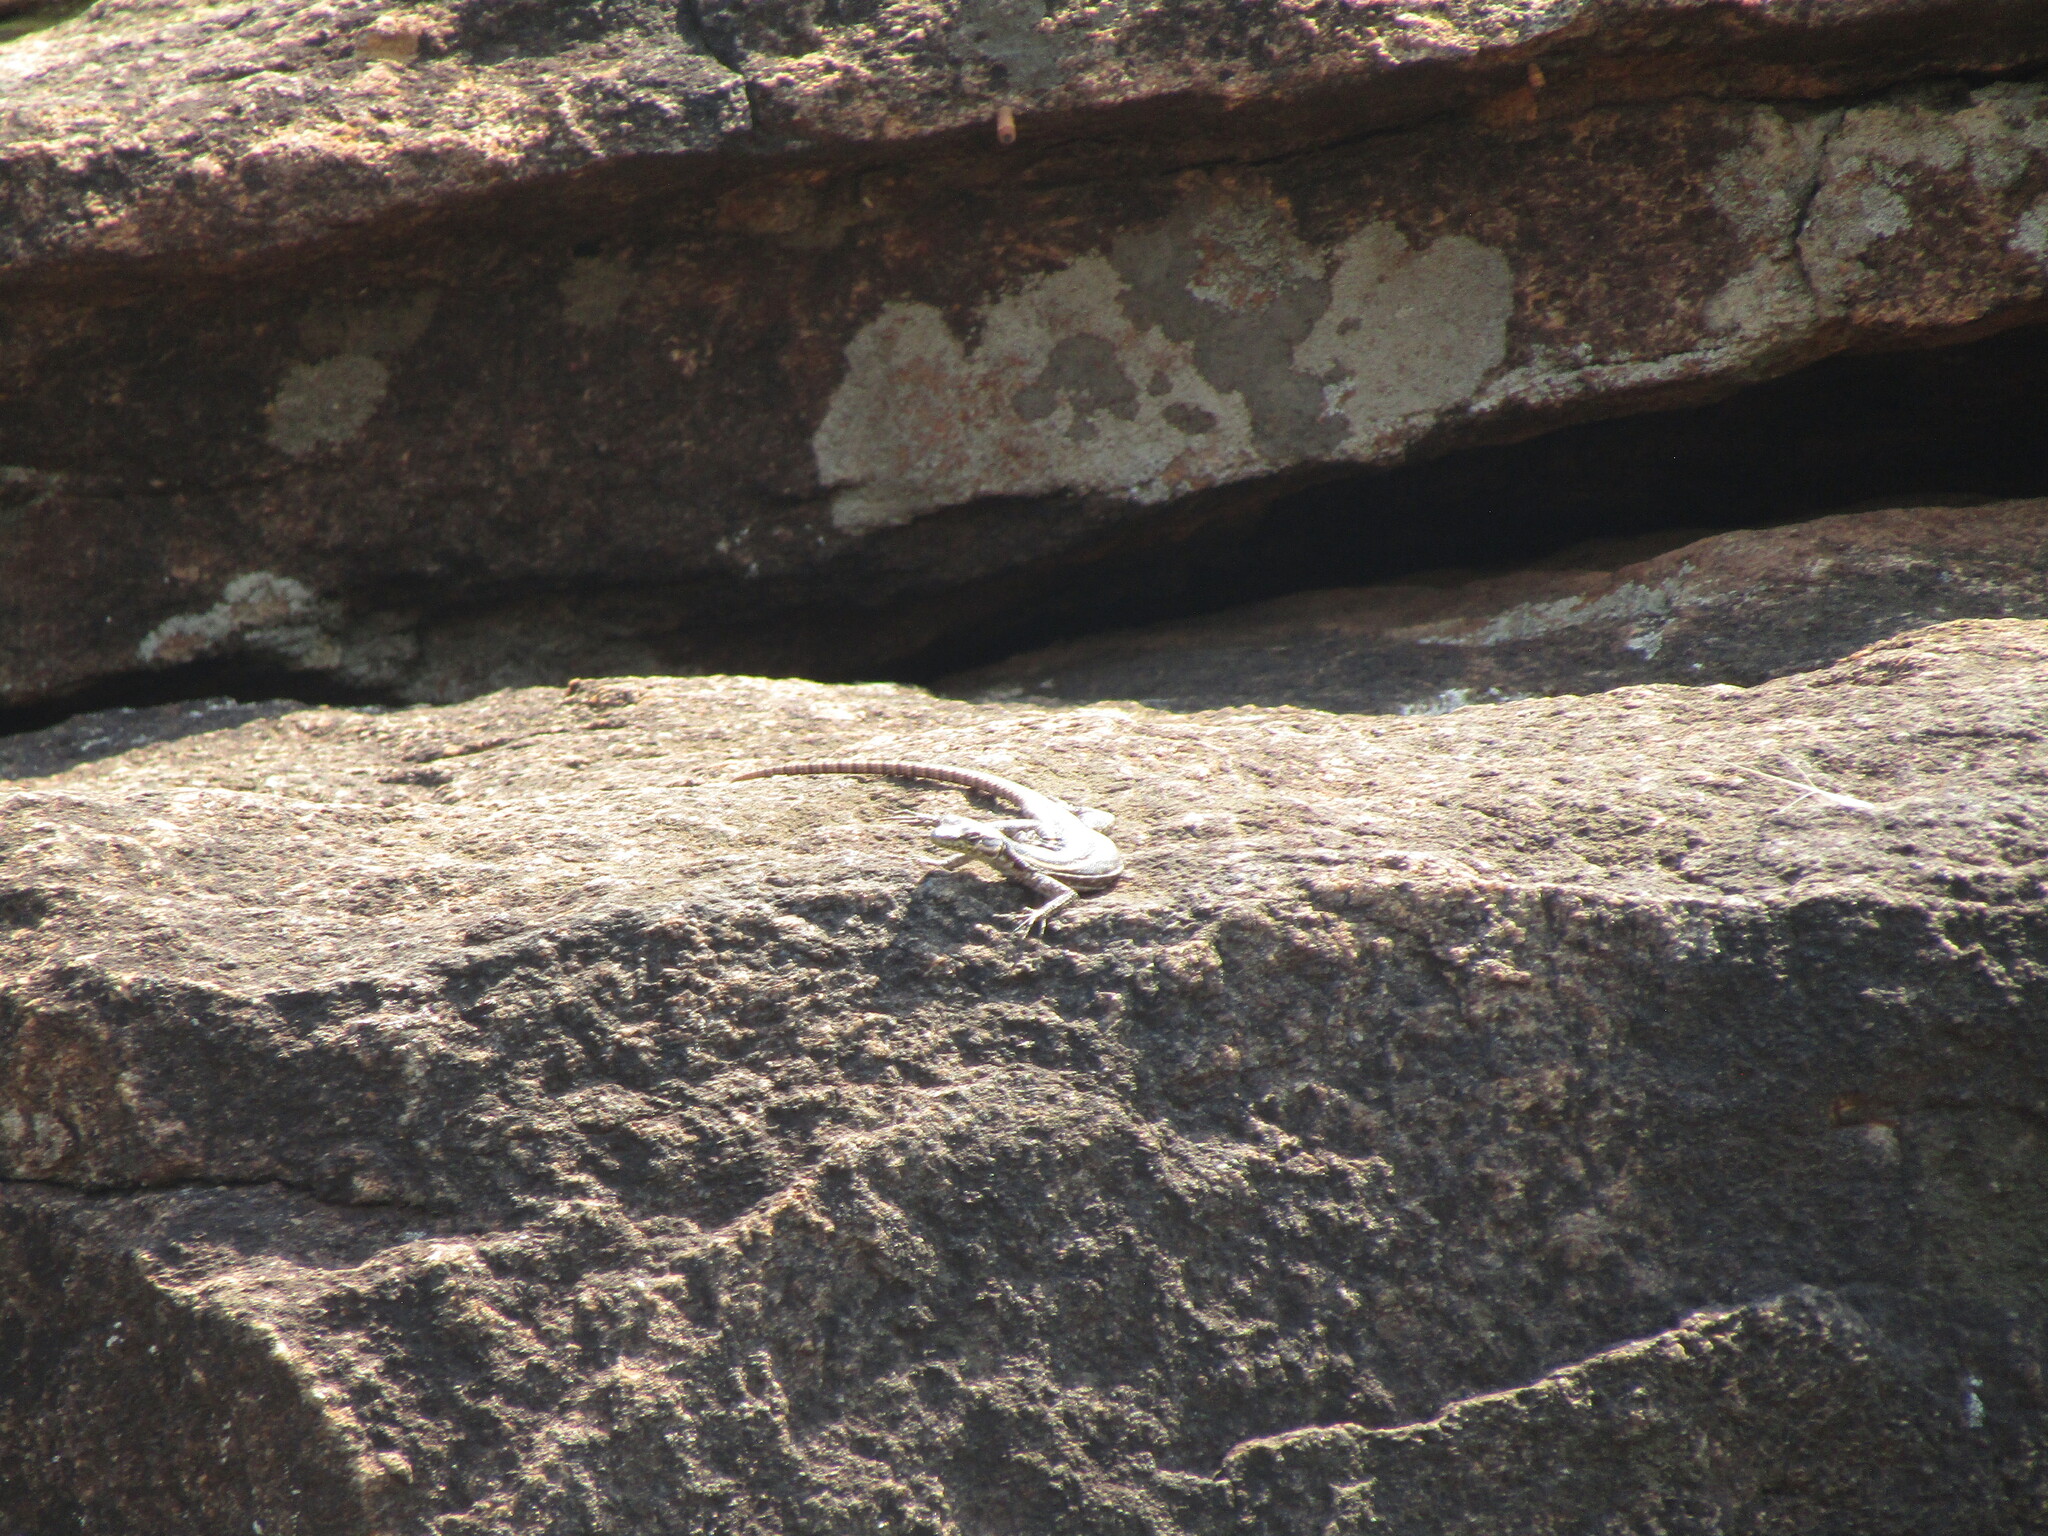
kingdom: Animalia
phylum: Chordata
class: Squamata
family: Cordylidae
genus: Platysaurus
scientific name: Platysaurus orientalis
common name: Sekhukune flat lizard
